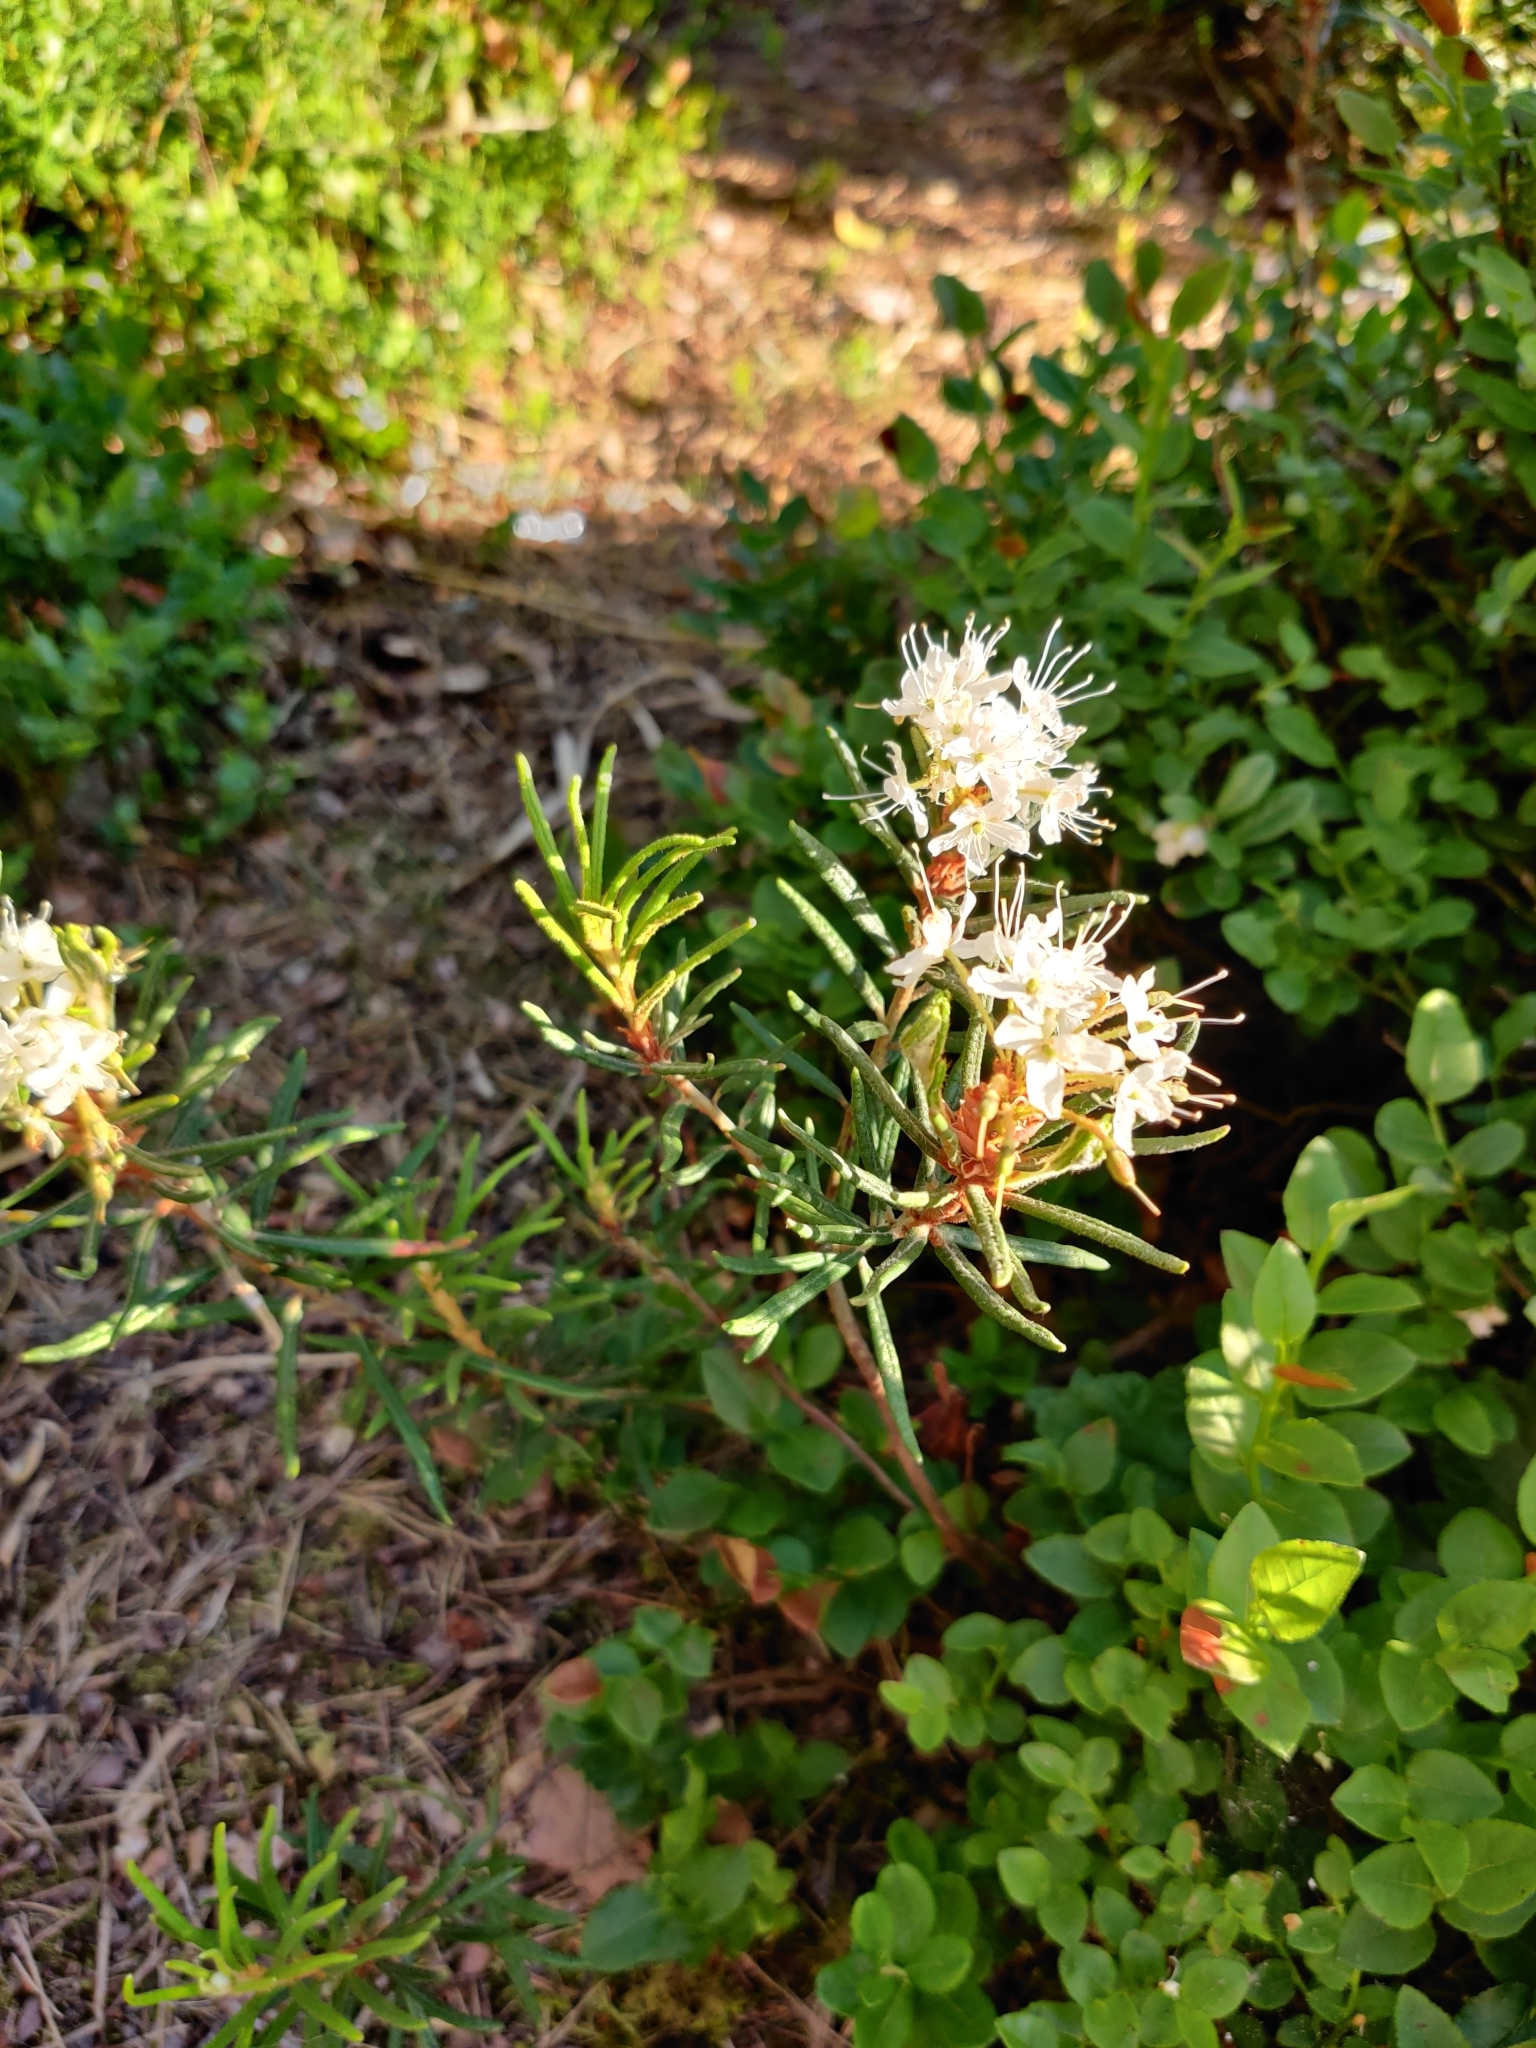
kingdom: Plantae
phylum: Tracheophyta
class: Magnoliopsida
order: Ericales
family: Ericaceae
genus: Rhododendron
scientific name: Rhododendron tomentosum
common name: Marsh labrador tea
